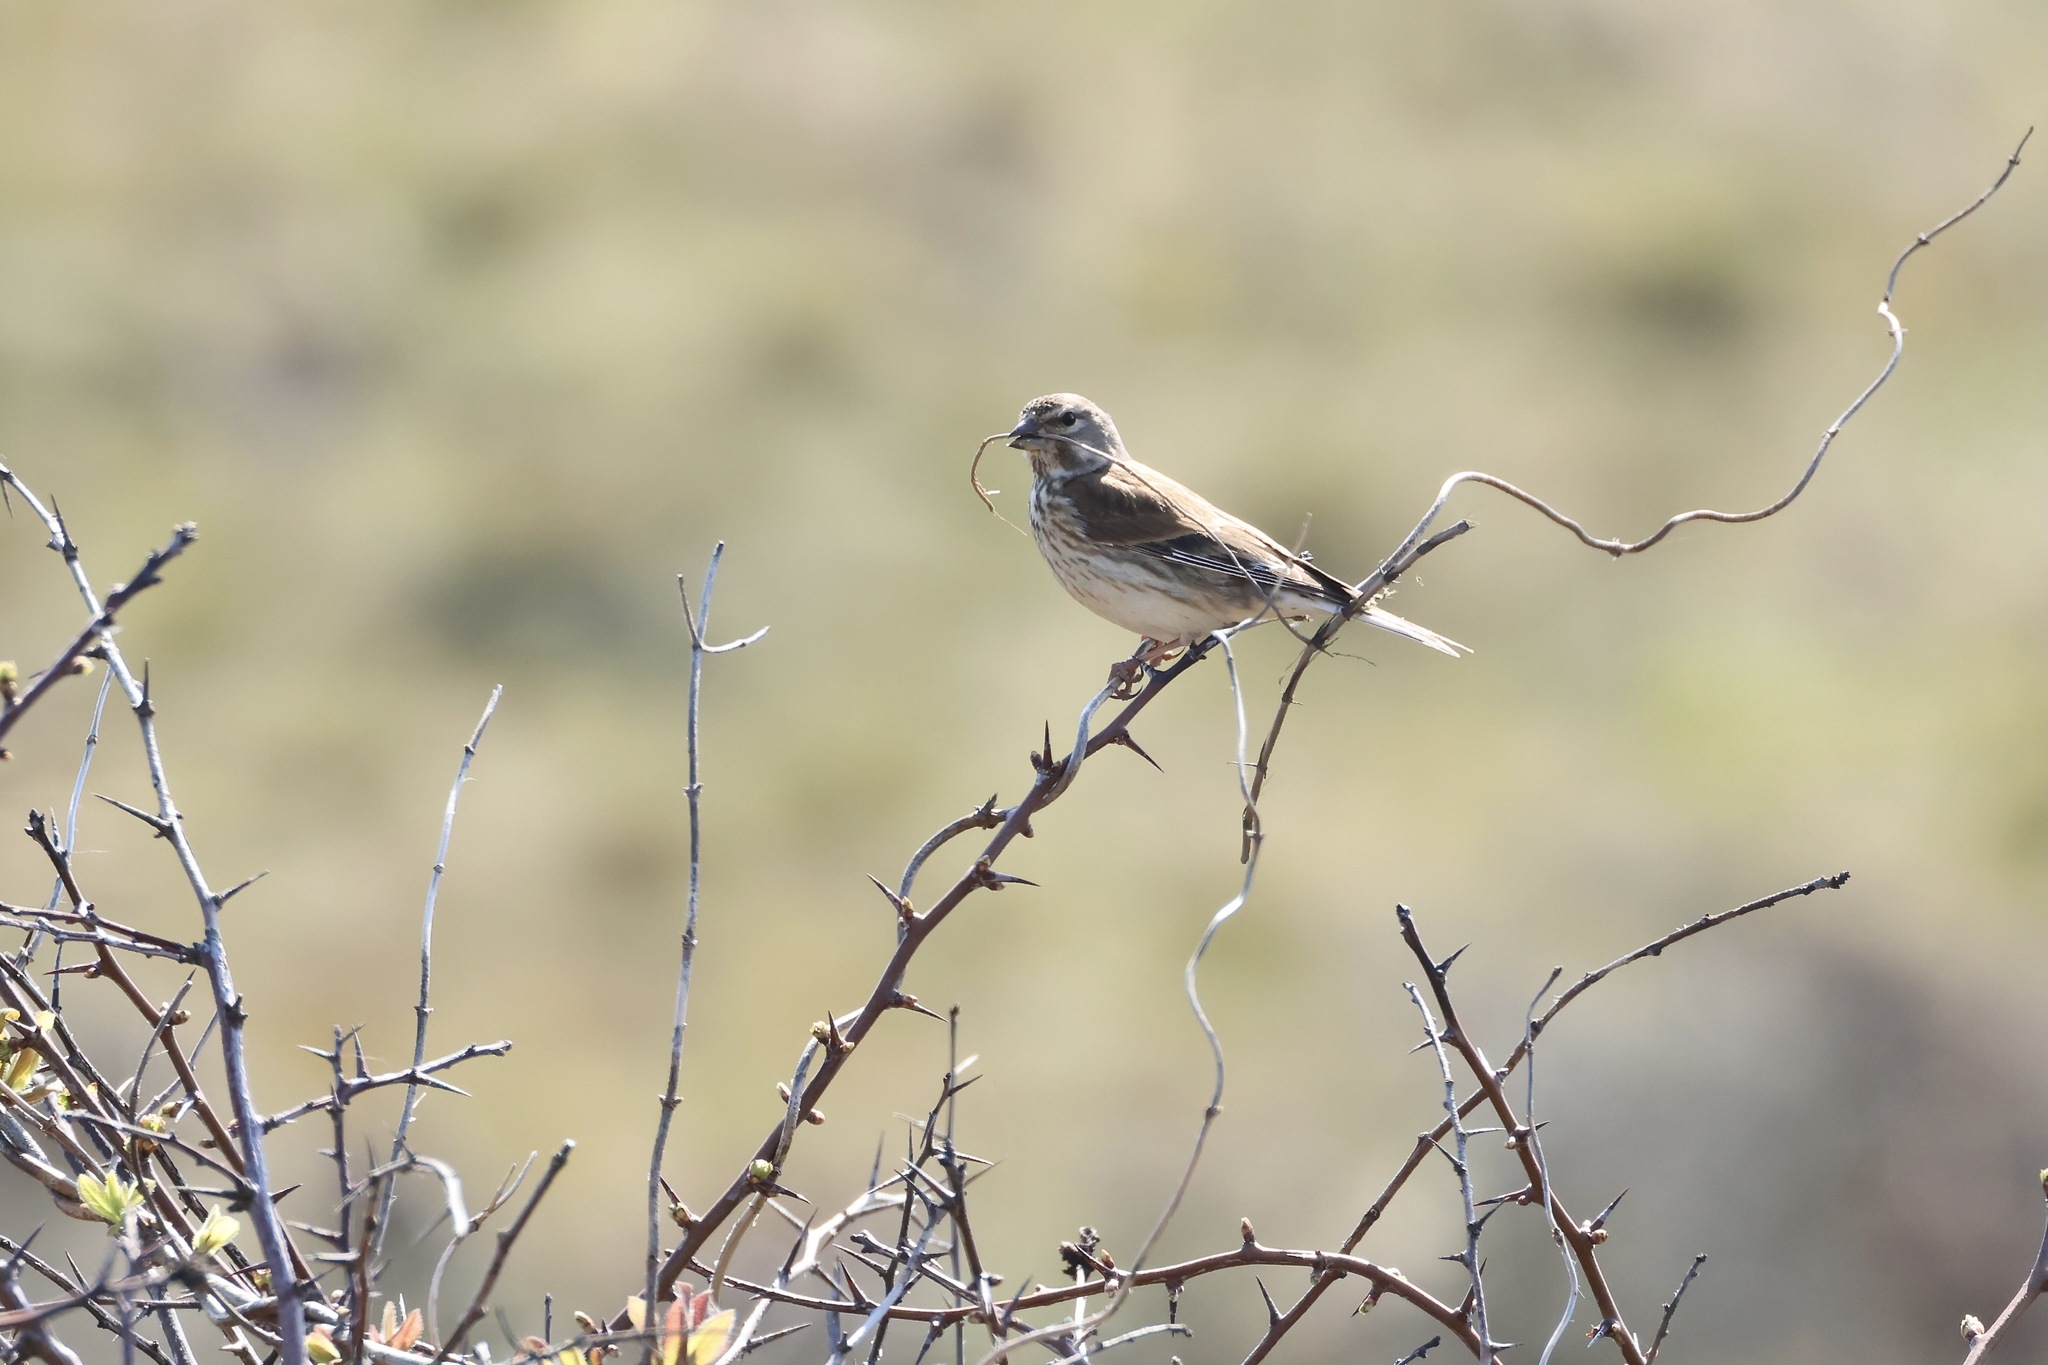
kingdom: Animalia
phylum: Chordata
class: Aves
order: Passeriformes
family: Fringillidae
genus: Linaria
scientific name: Linaria cannabina
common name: Common linnet
